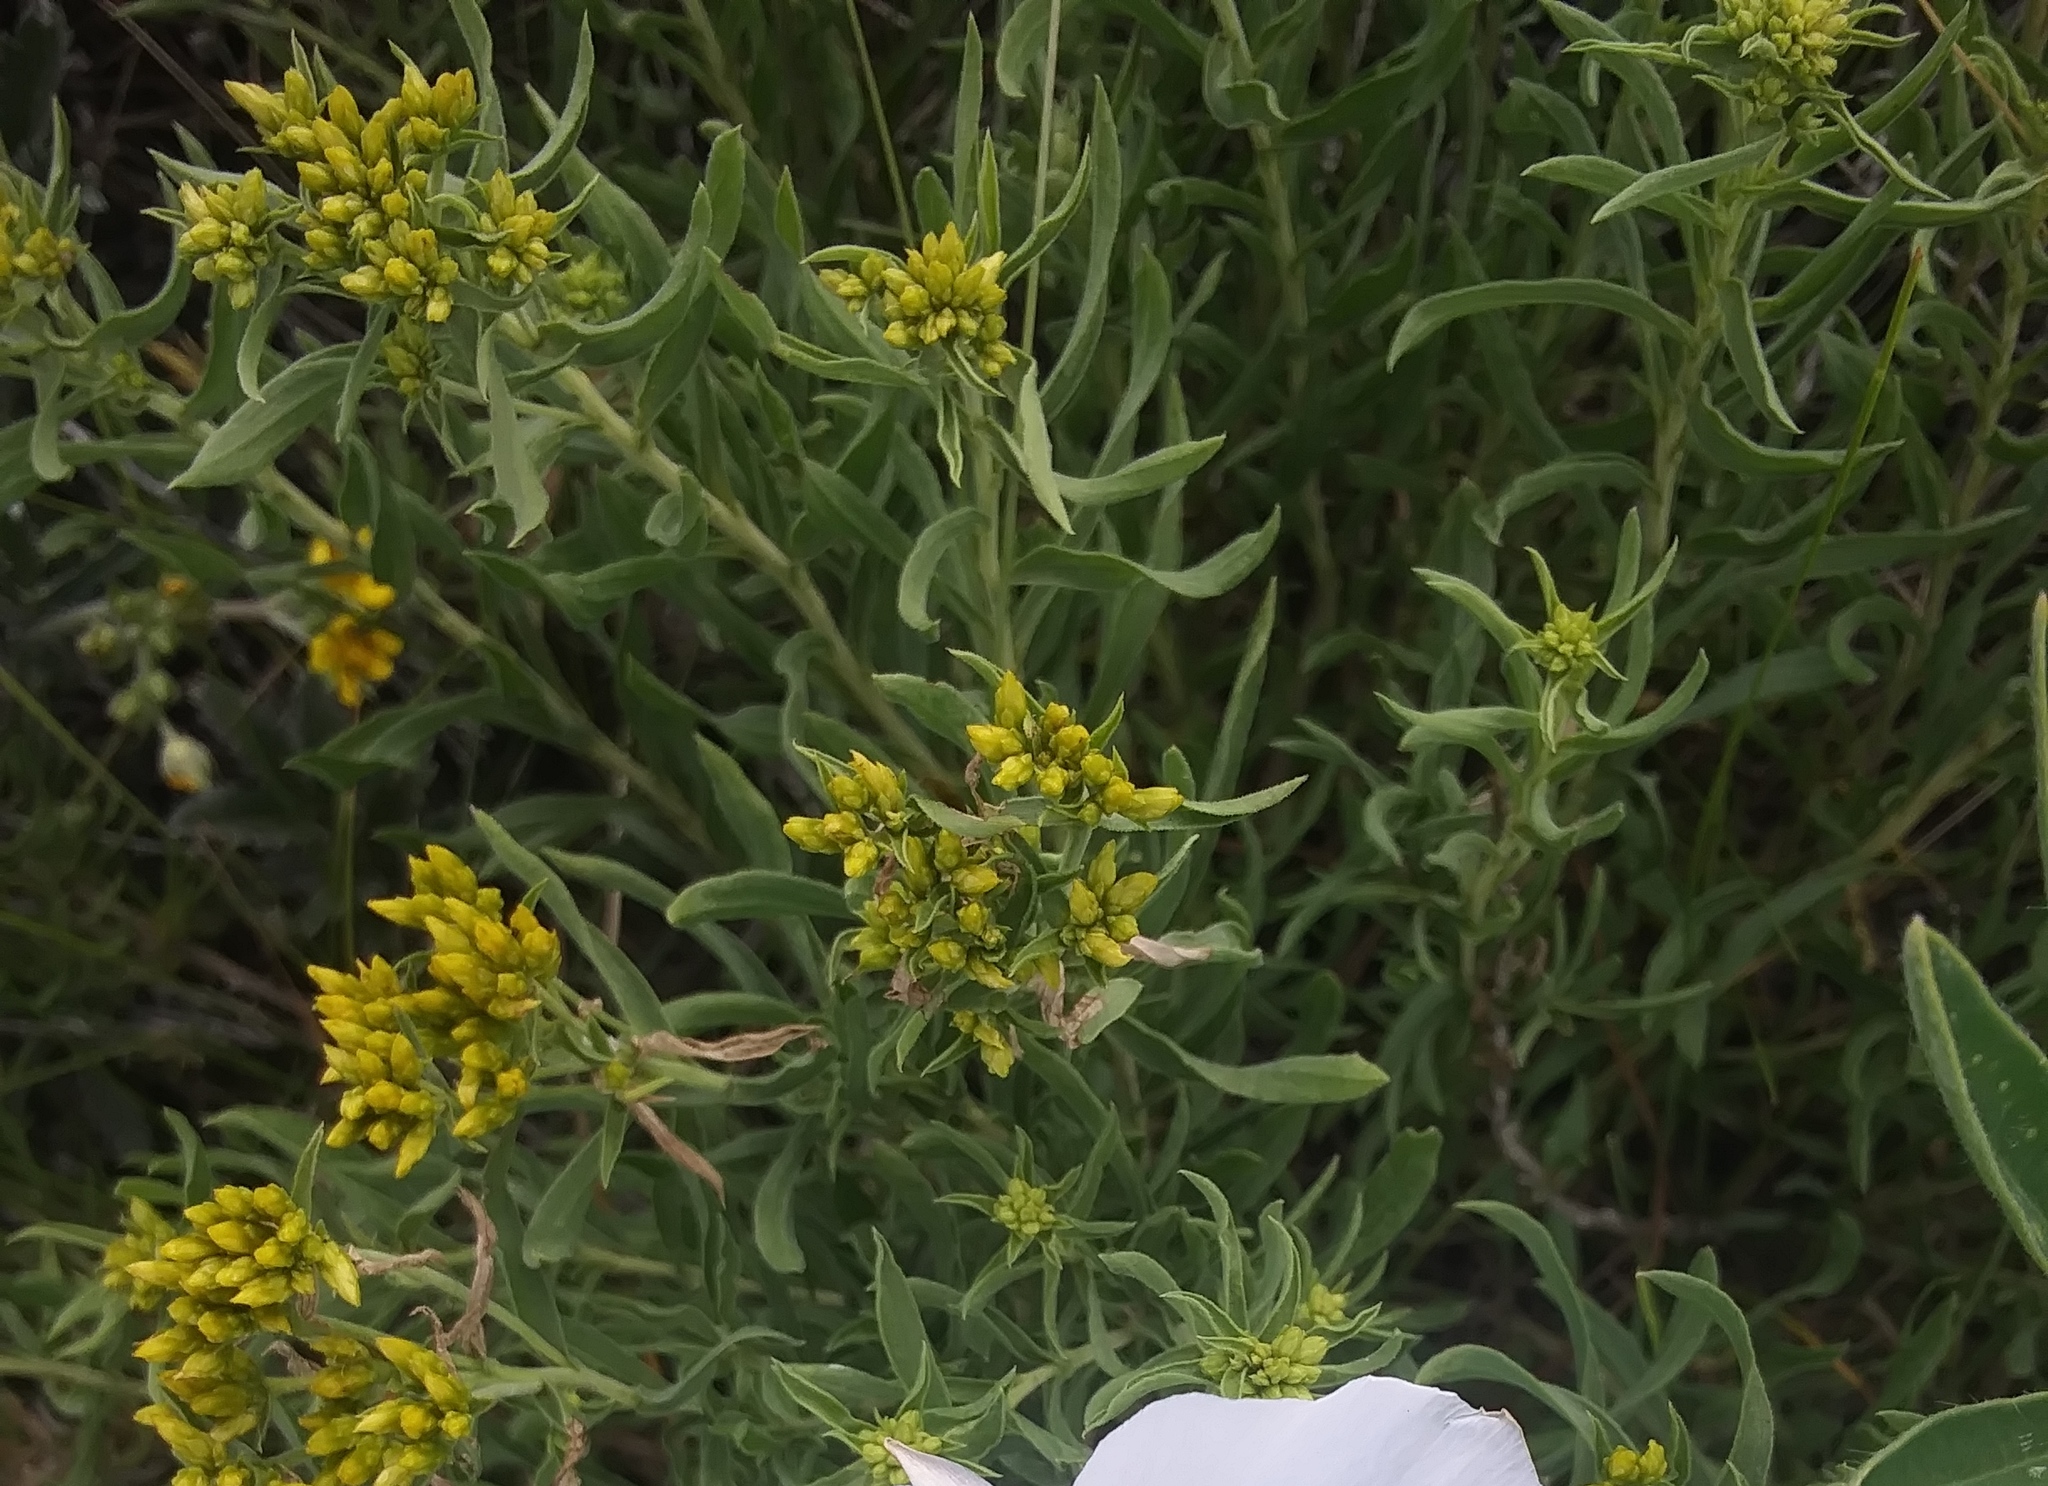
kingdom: Plantae
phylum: Tracheophyta
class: Magnoliopsida
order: Asterales
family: Asteraceae
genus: Chrysothamnus
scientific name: Chrysothamnus viscidiflorus
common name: Yellow rabbitbrush
